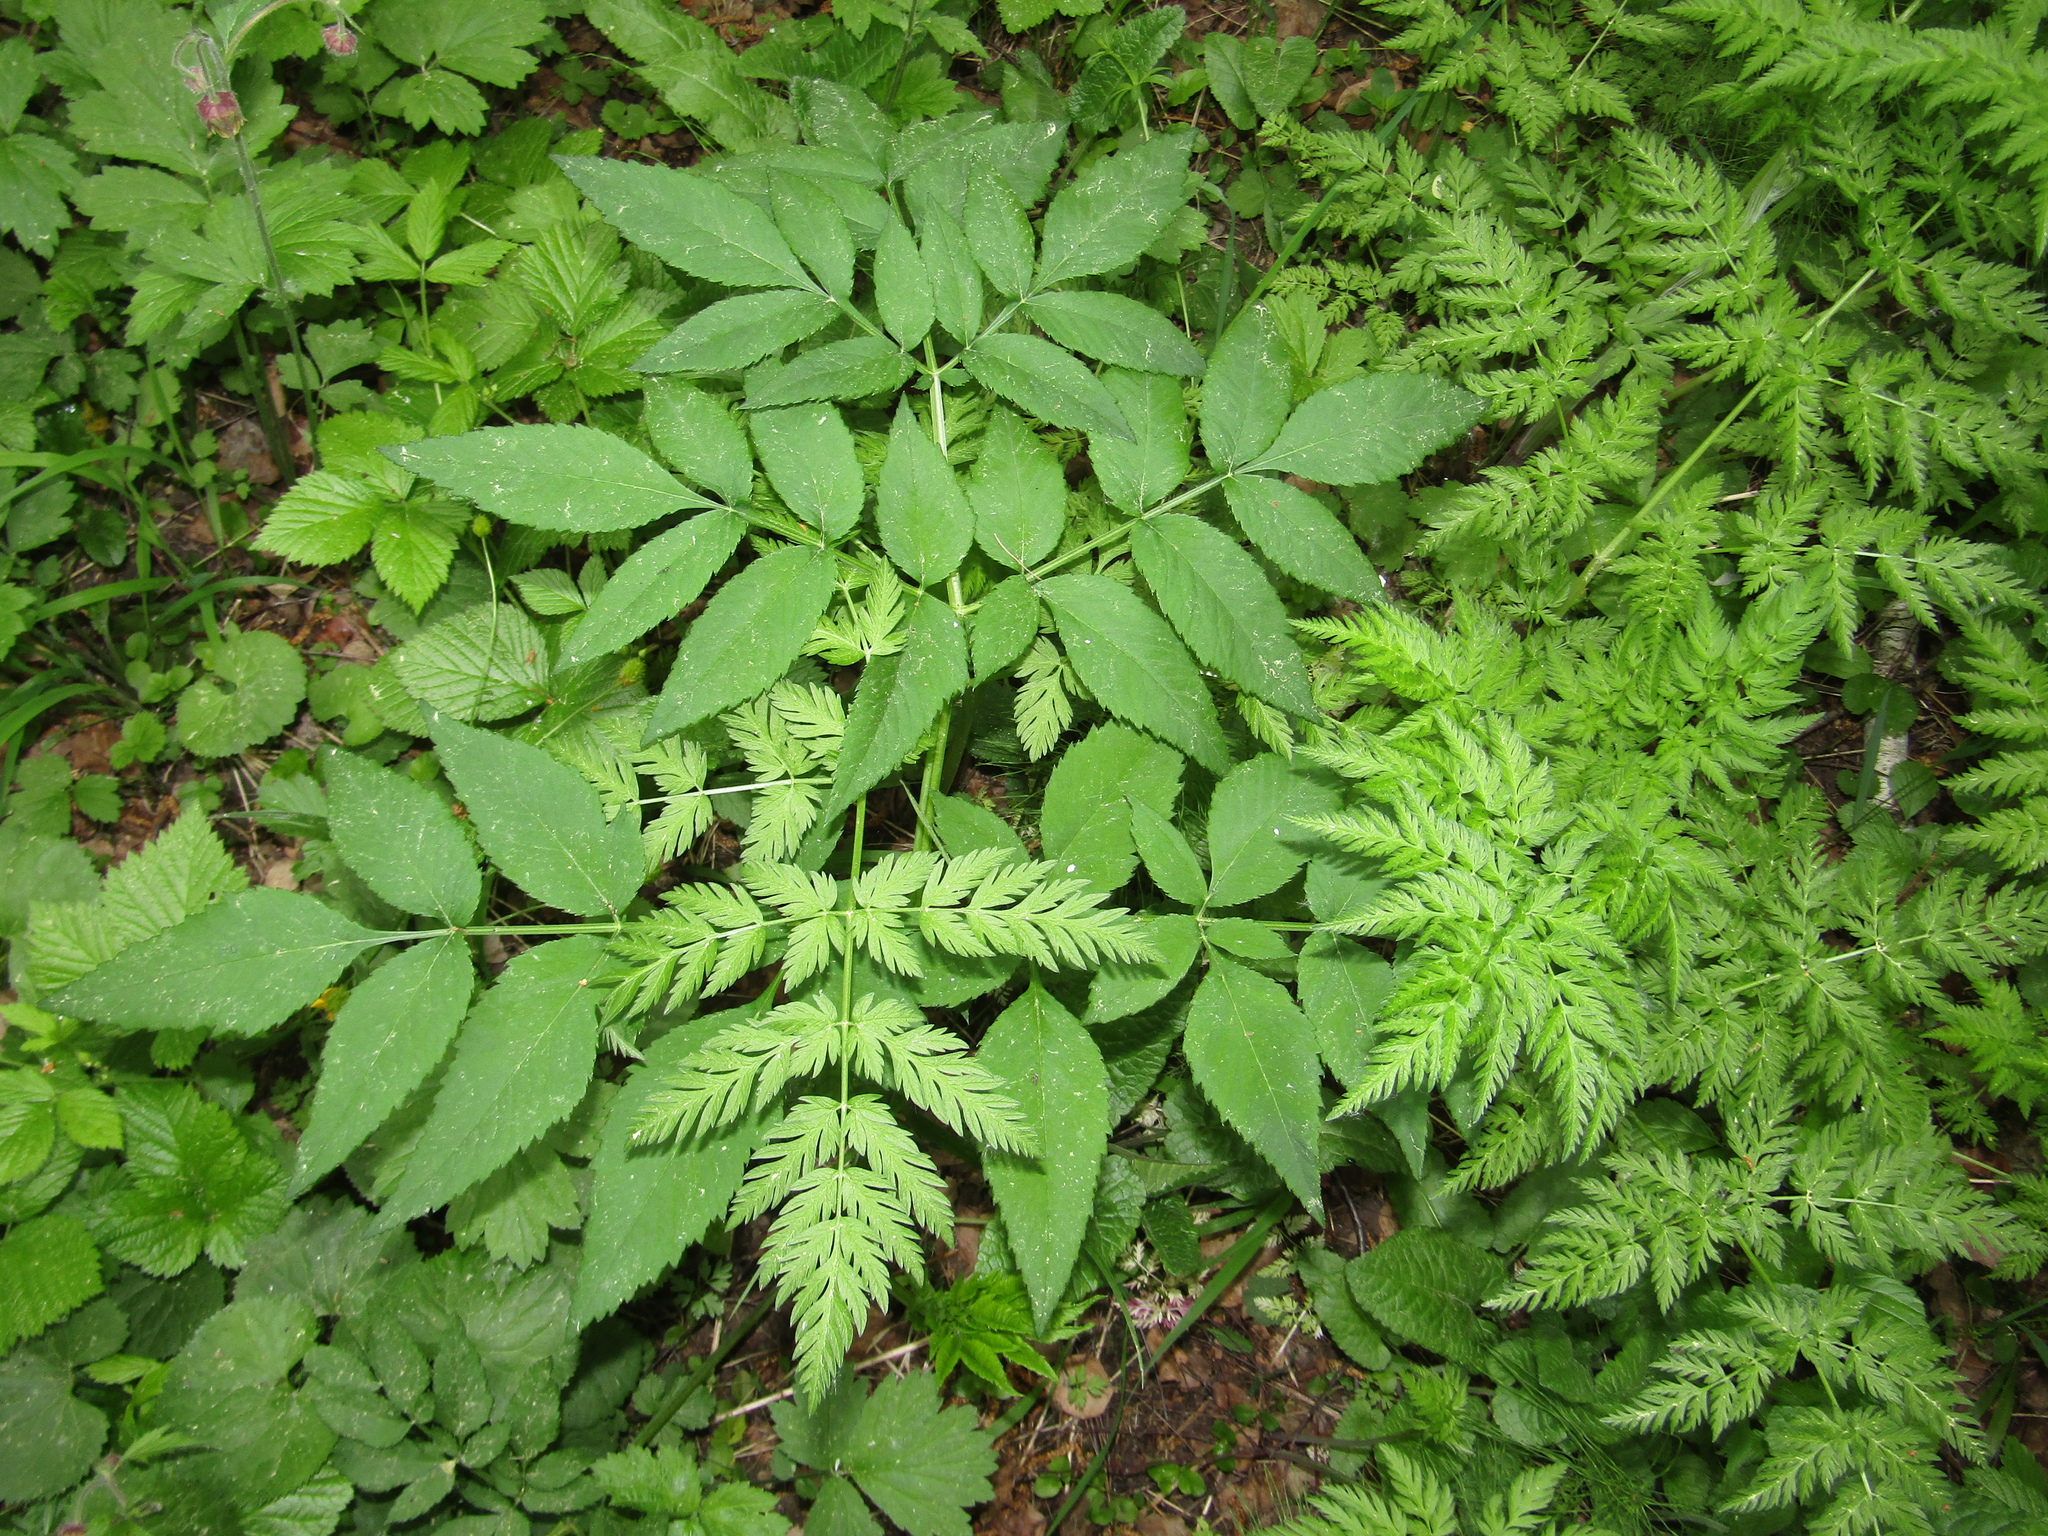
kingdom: Plantae
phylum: Tracheophyta
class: Magnoliopsida
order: Apiales
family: Apiaceae
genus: Angelica
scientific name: Angelica sylvestris
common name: Wild angelica
